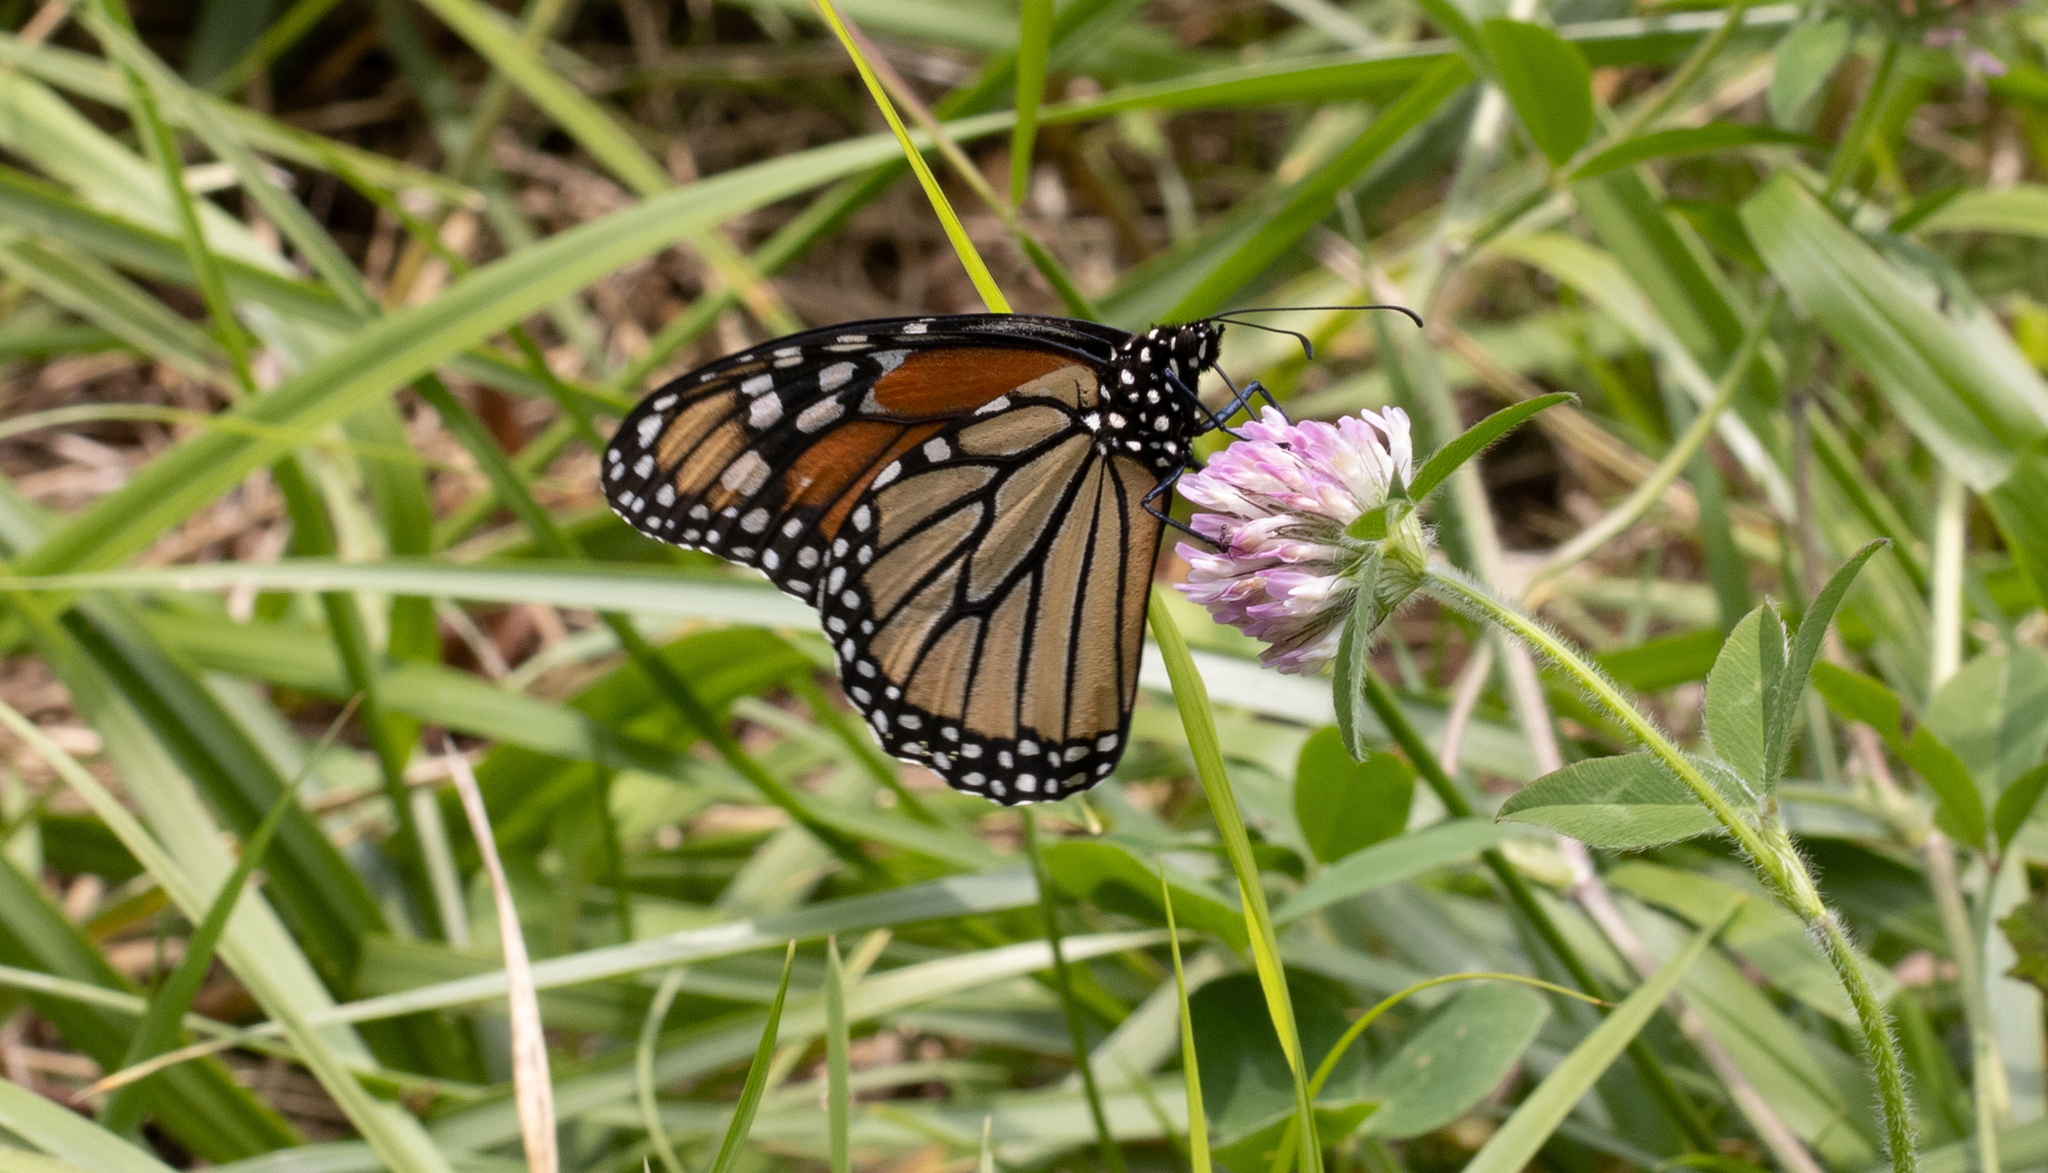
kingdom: Animalia
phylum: Arthropoda
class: Insecta
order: Lepidoptera
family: Nymphalidae
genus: Danaus
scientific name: Danaus plexippus
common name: Monarch
